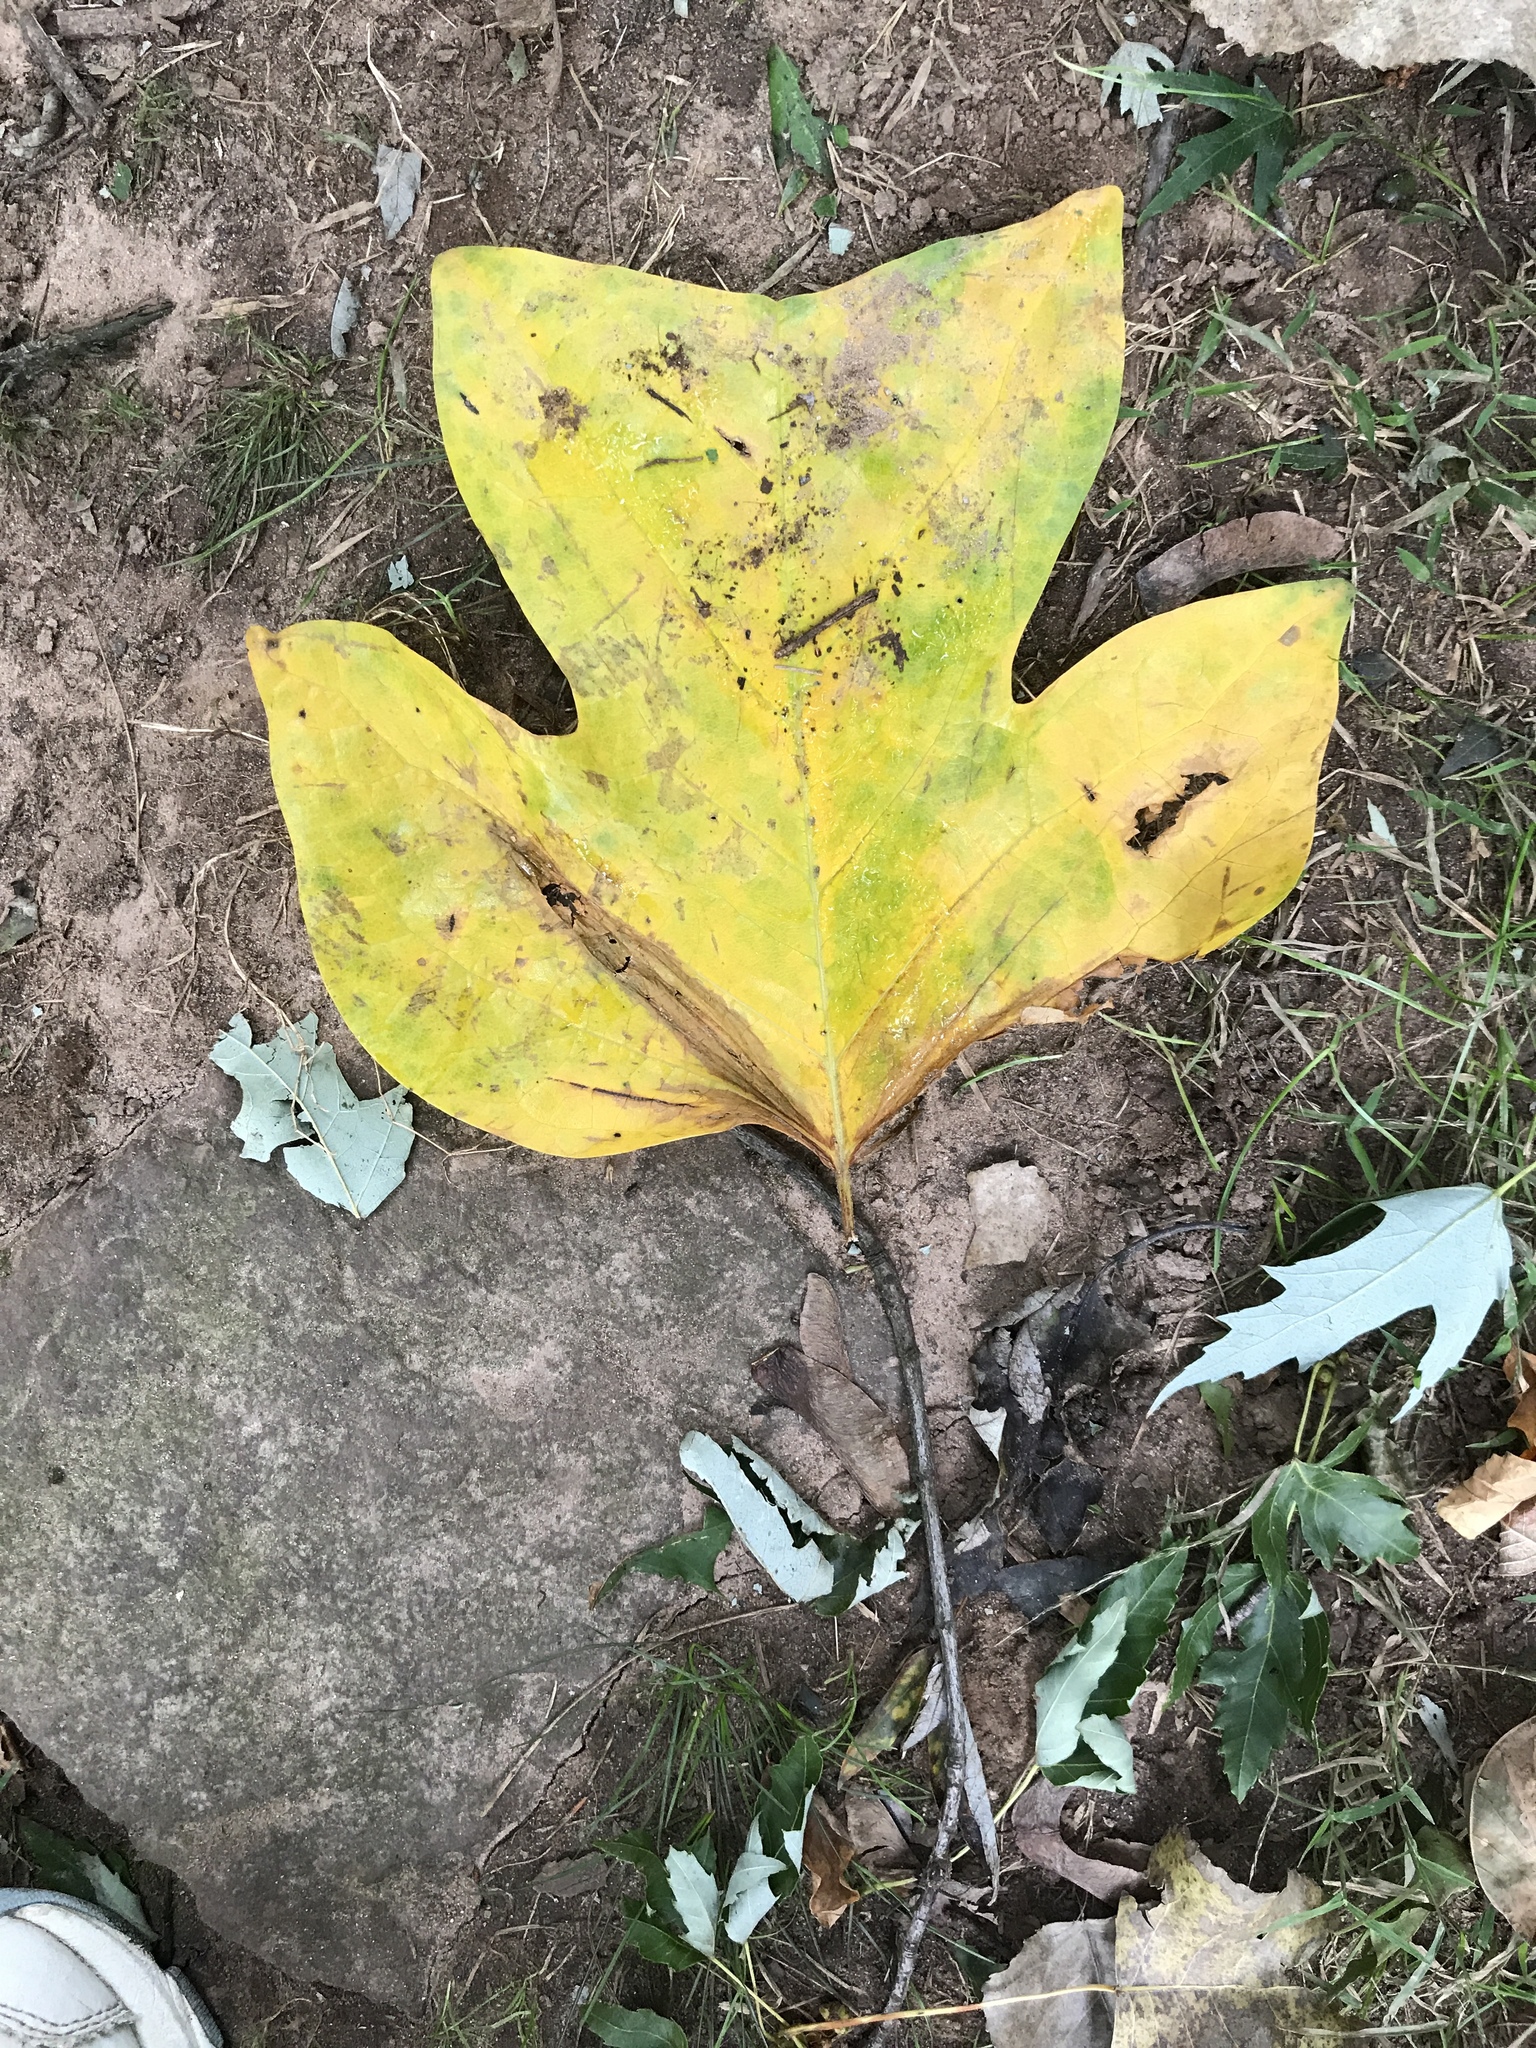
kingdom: Plantae
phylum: Tracheophyta
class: Magnoliopsida
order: Magnoliales
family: Magnoliaceae
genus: Liriodendron
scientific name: Liriodendron tulipifera
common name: Tulip tree
